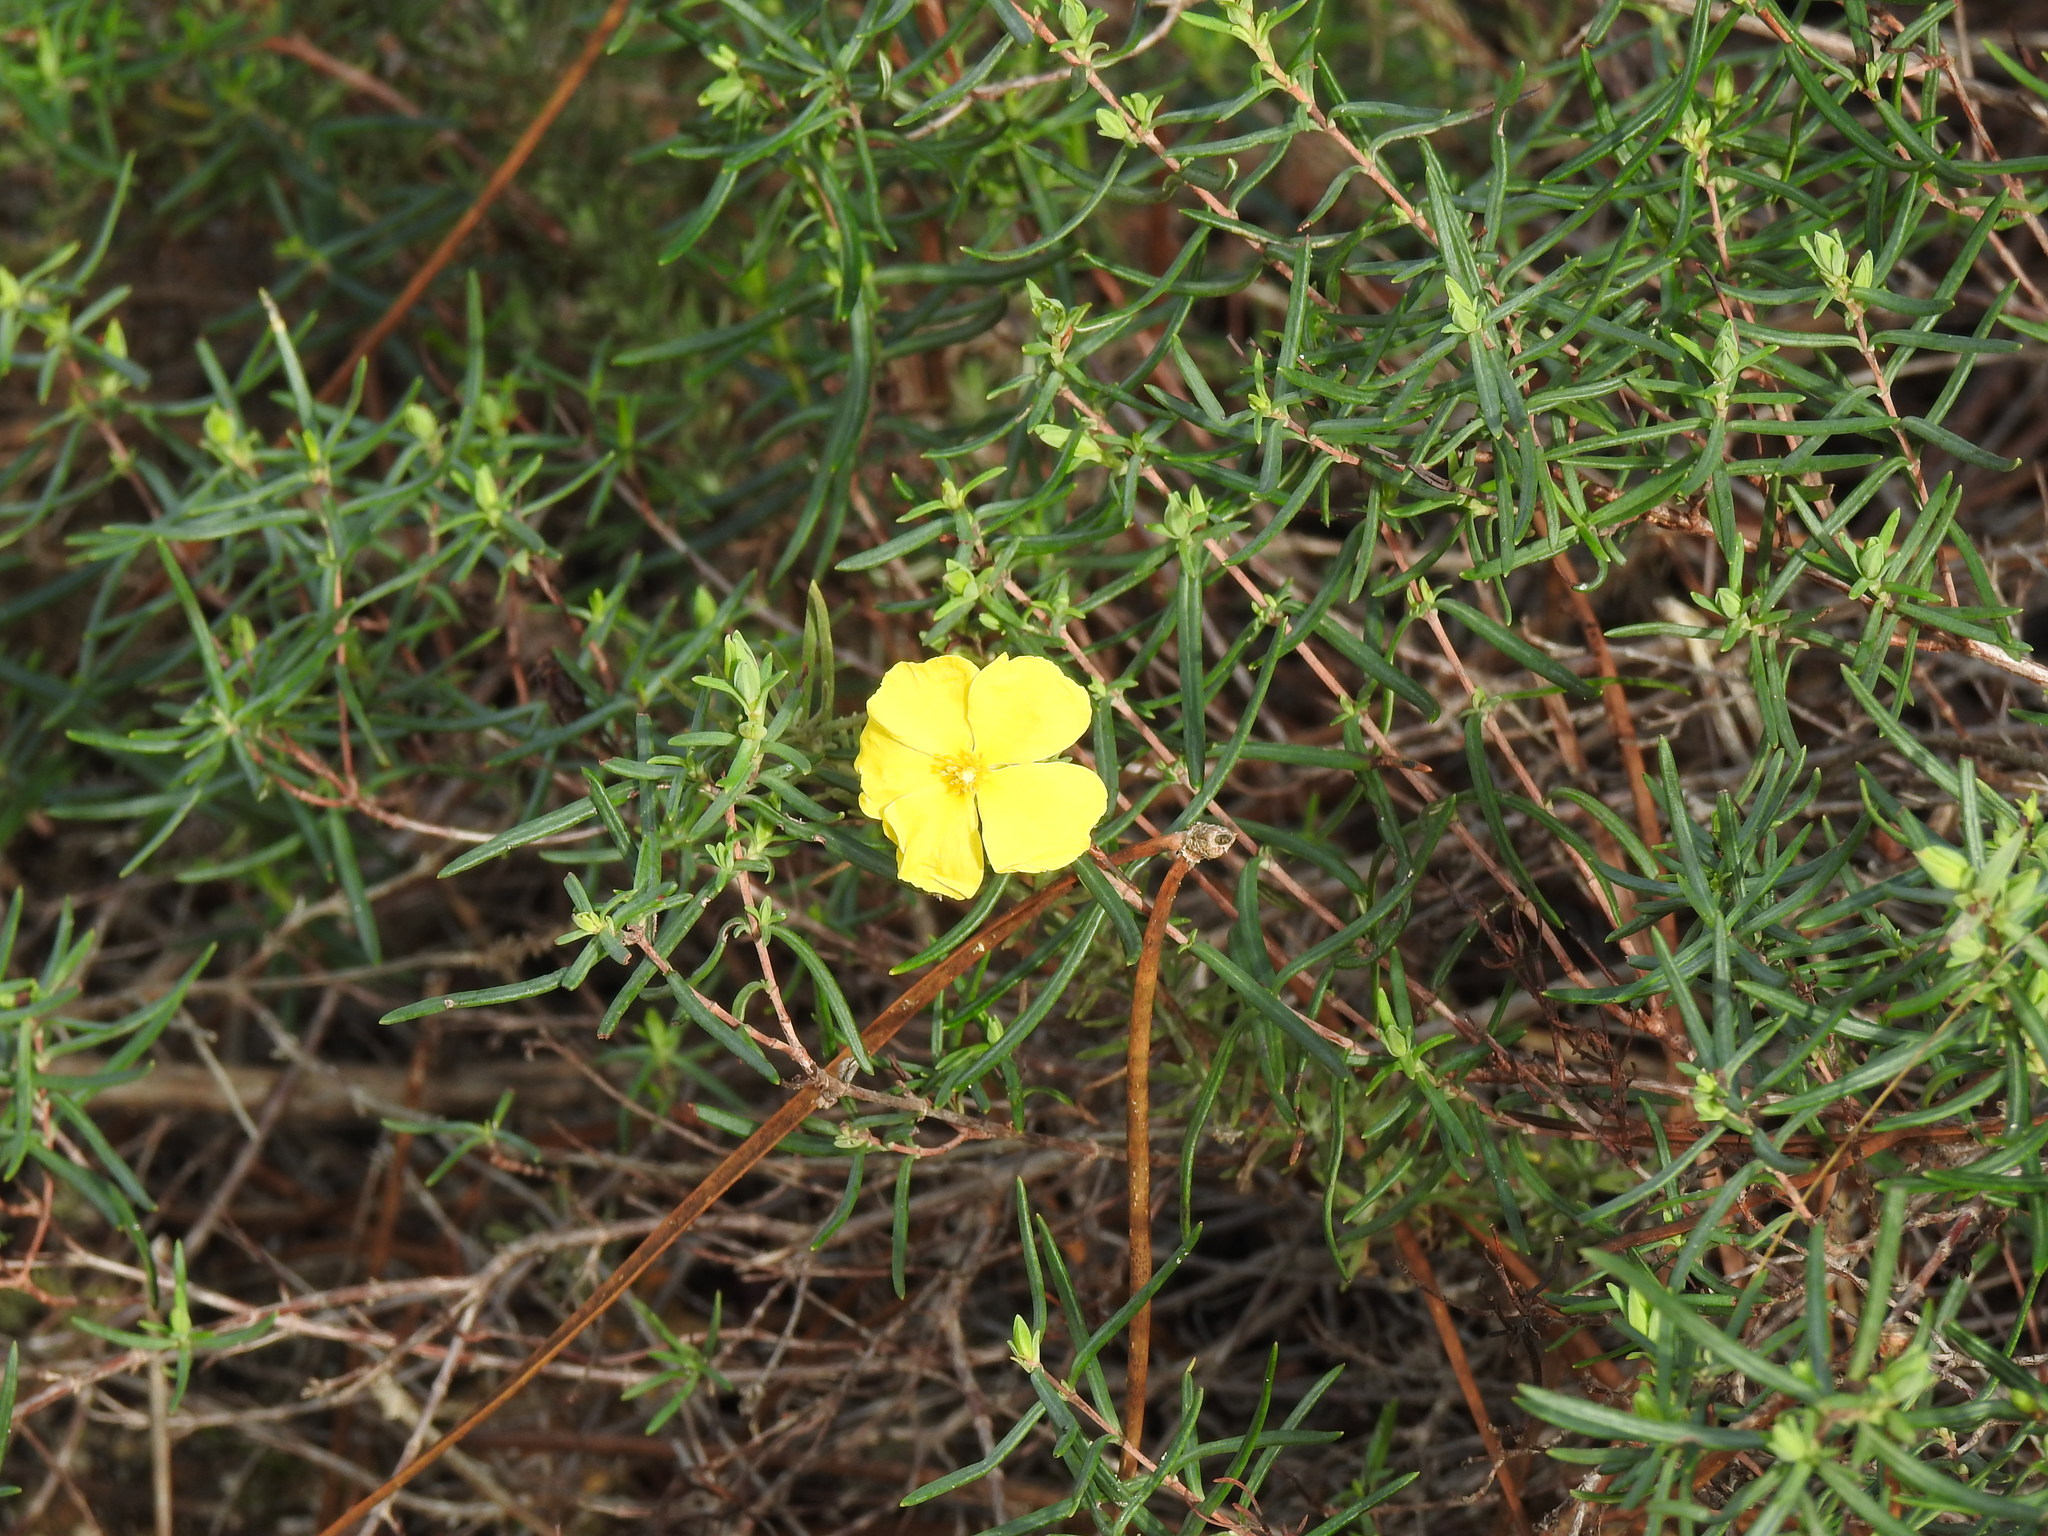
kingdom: Plantae
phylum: Tracheophyta
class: Magnoliopsida
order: Malvales
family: Cistaceae
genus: Halimium
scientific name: Halimium calycinum
